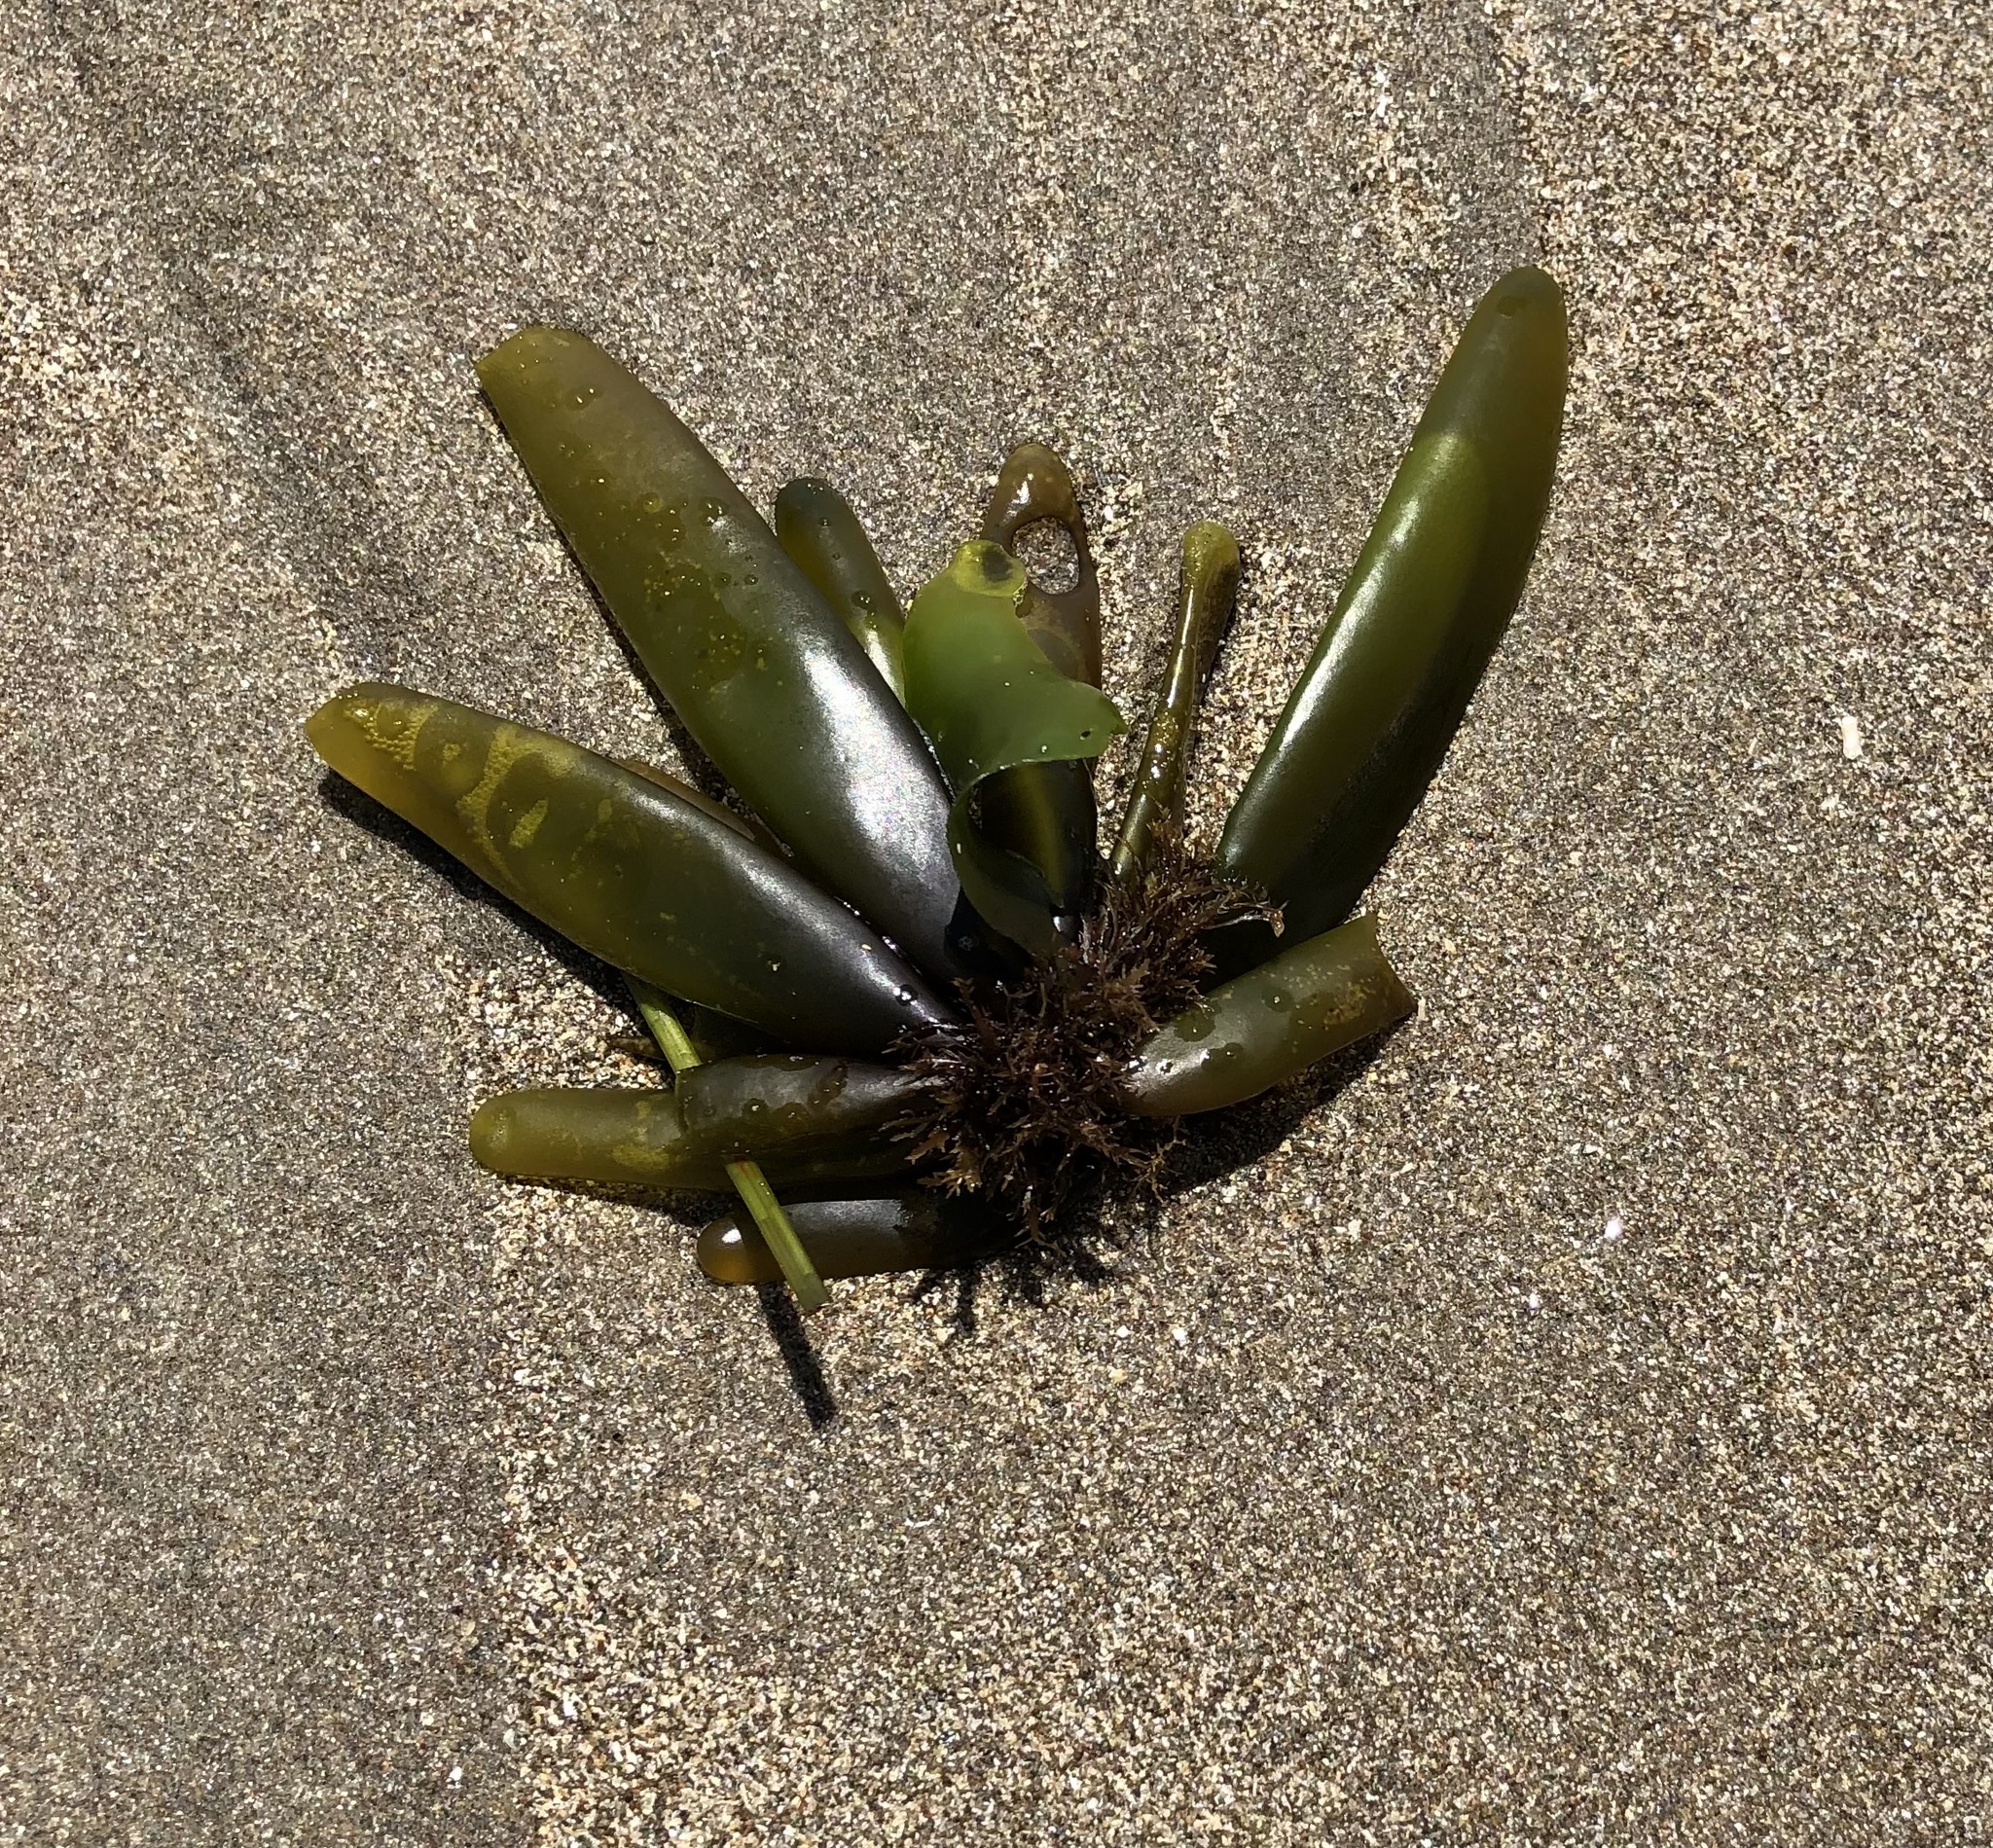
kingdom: Plantae
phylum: Rhodophyta
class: Florideophyceae
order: Palmariales
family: Palmariaceae
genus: Halosaccion
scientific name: Halosaccion glandiforme
